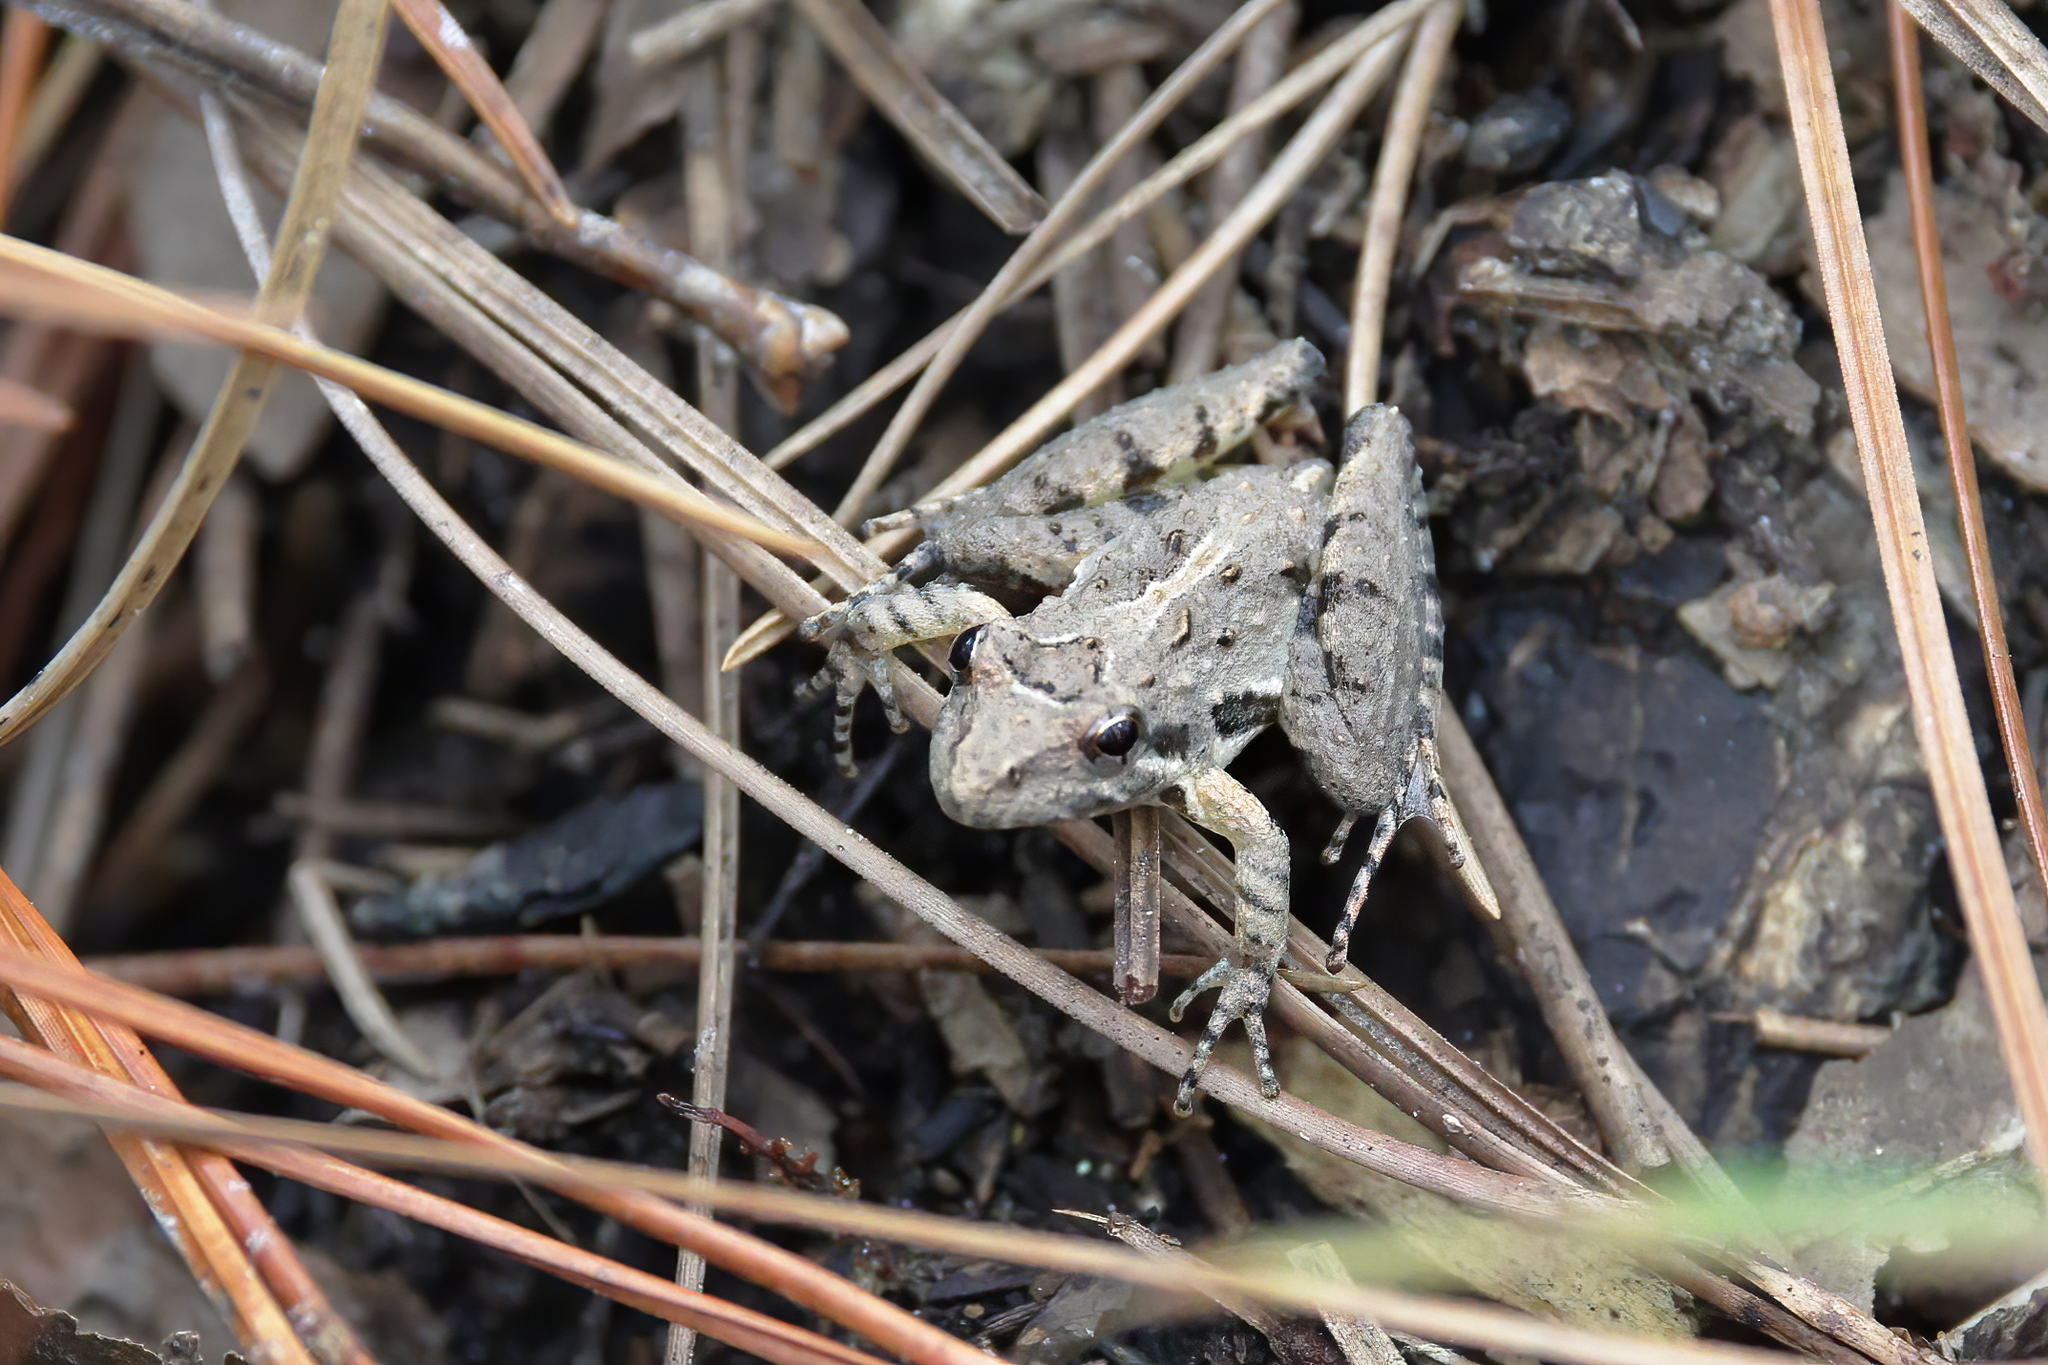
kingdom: Animalia
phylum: Chordata
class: Amphibia
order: Anura
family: Hylidae
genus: Acris
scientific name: Acris gryllus
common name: Southern cricket frog
